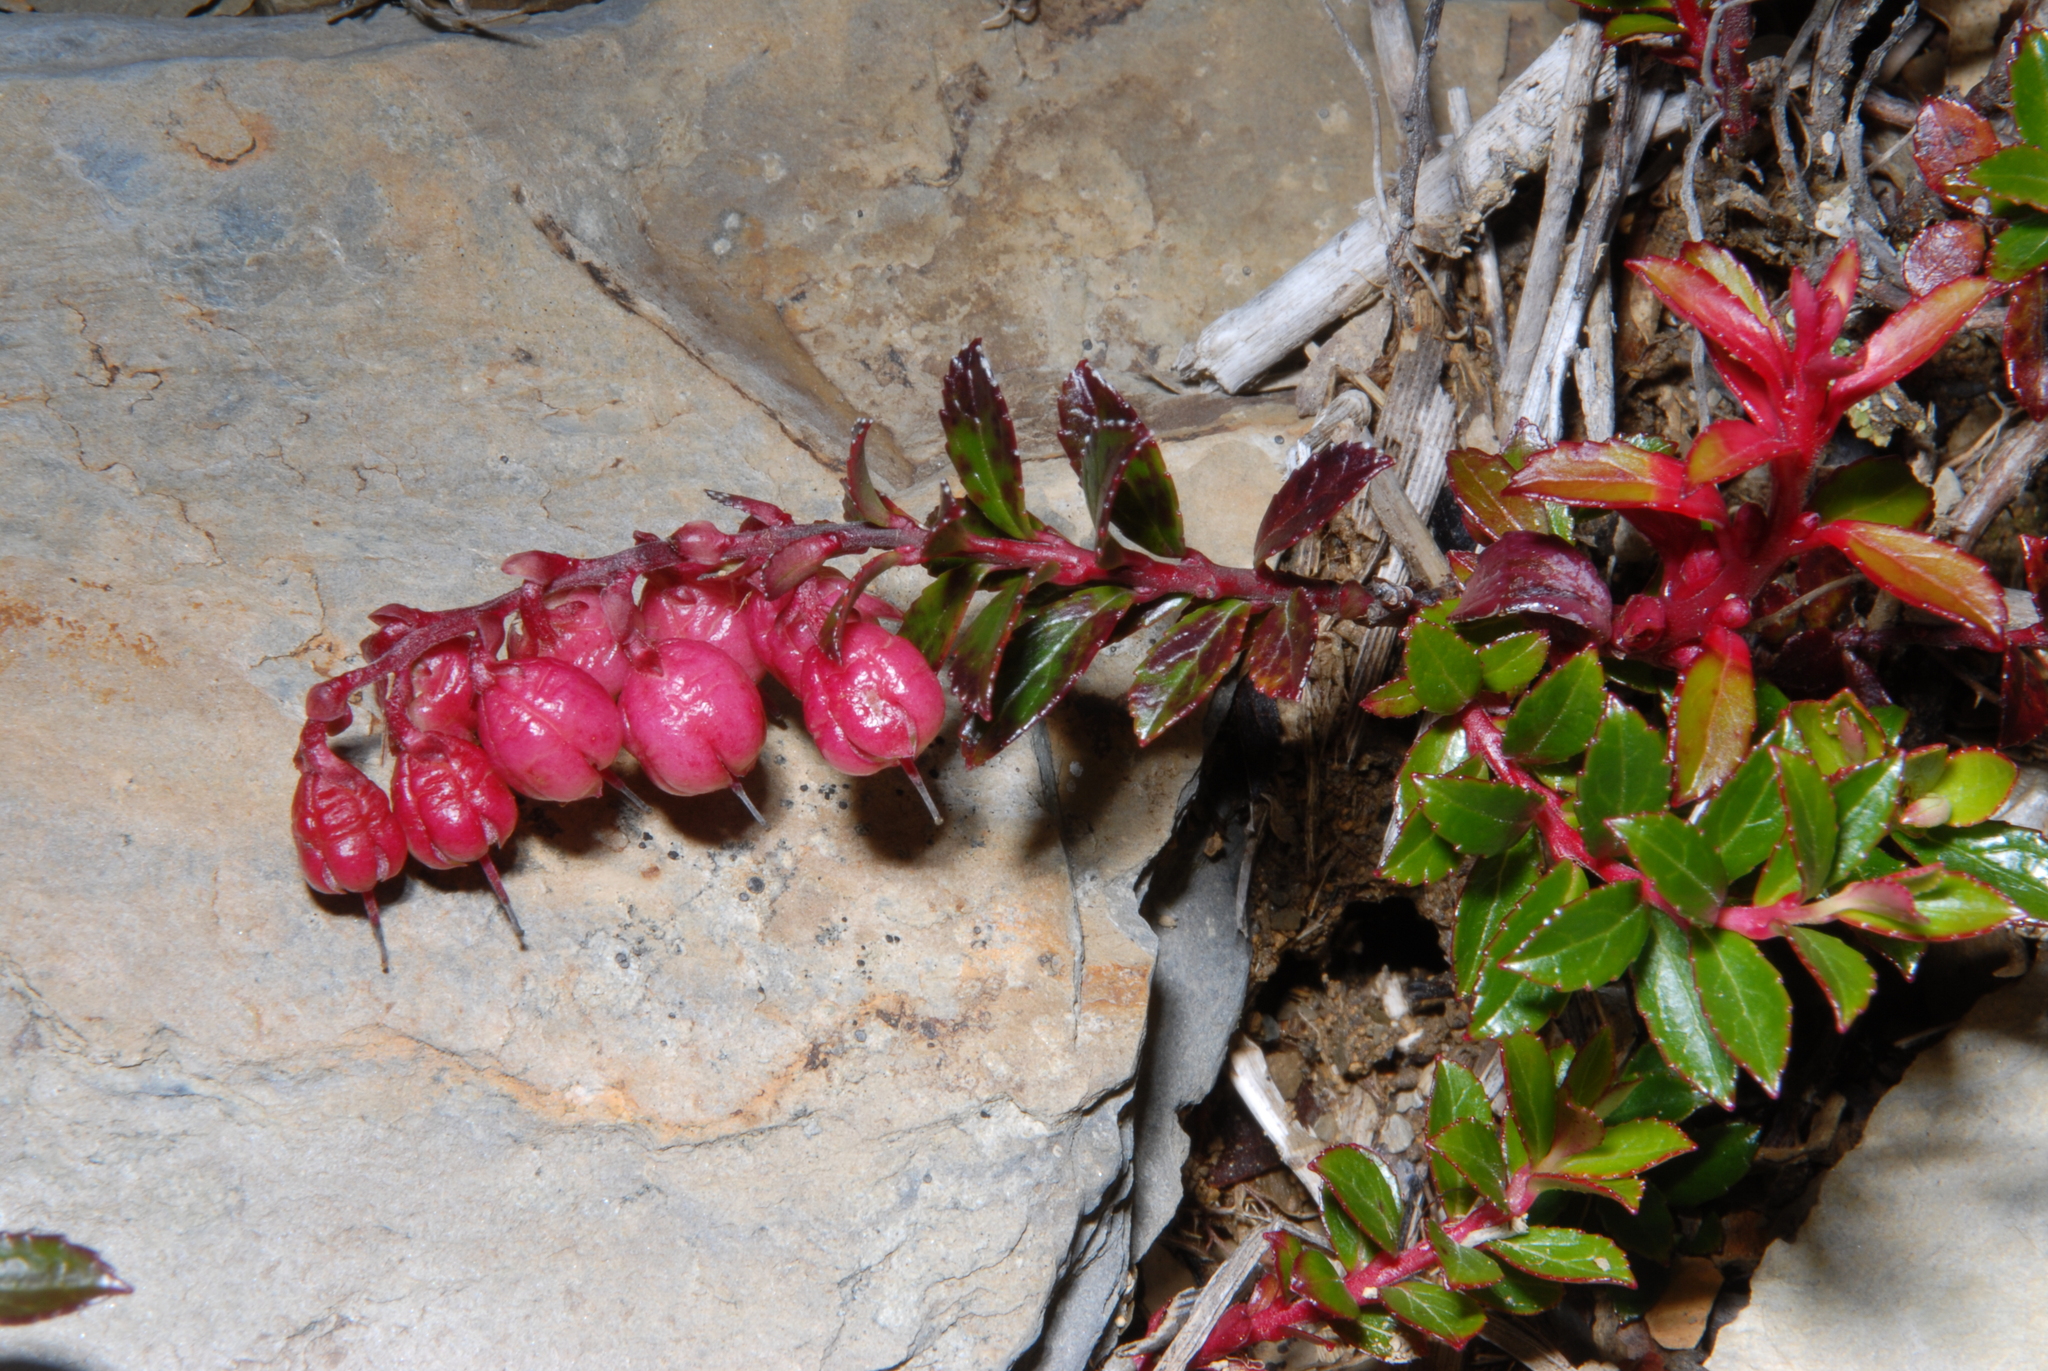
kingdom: Plantae
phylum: Tracheophyta
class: Magnoliopsida
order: Ericales
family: Ericaceae
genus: Gaultheria
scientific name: Gaultheria borneensis
